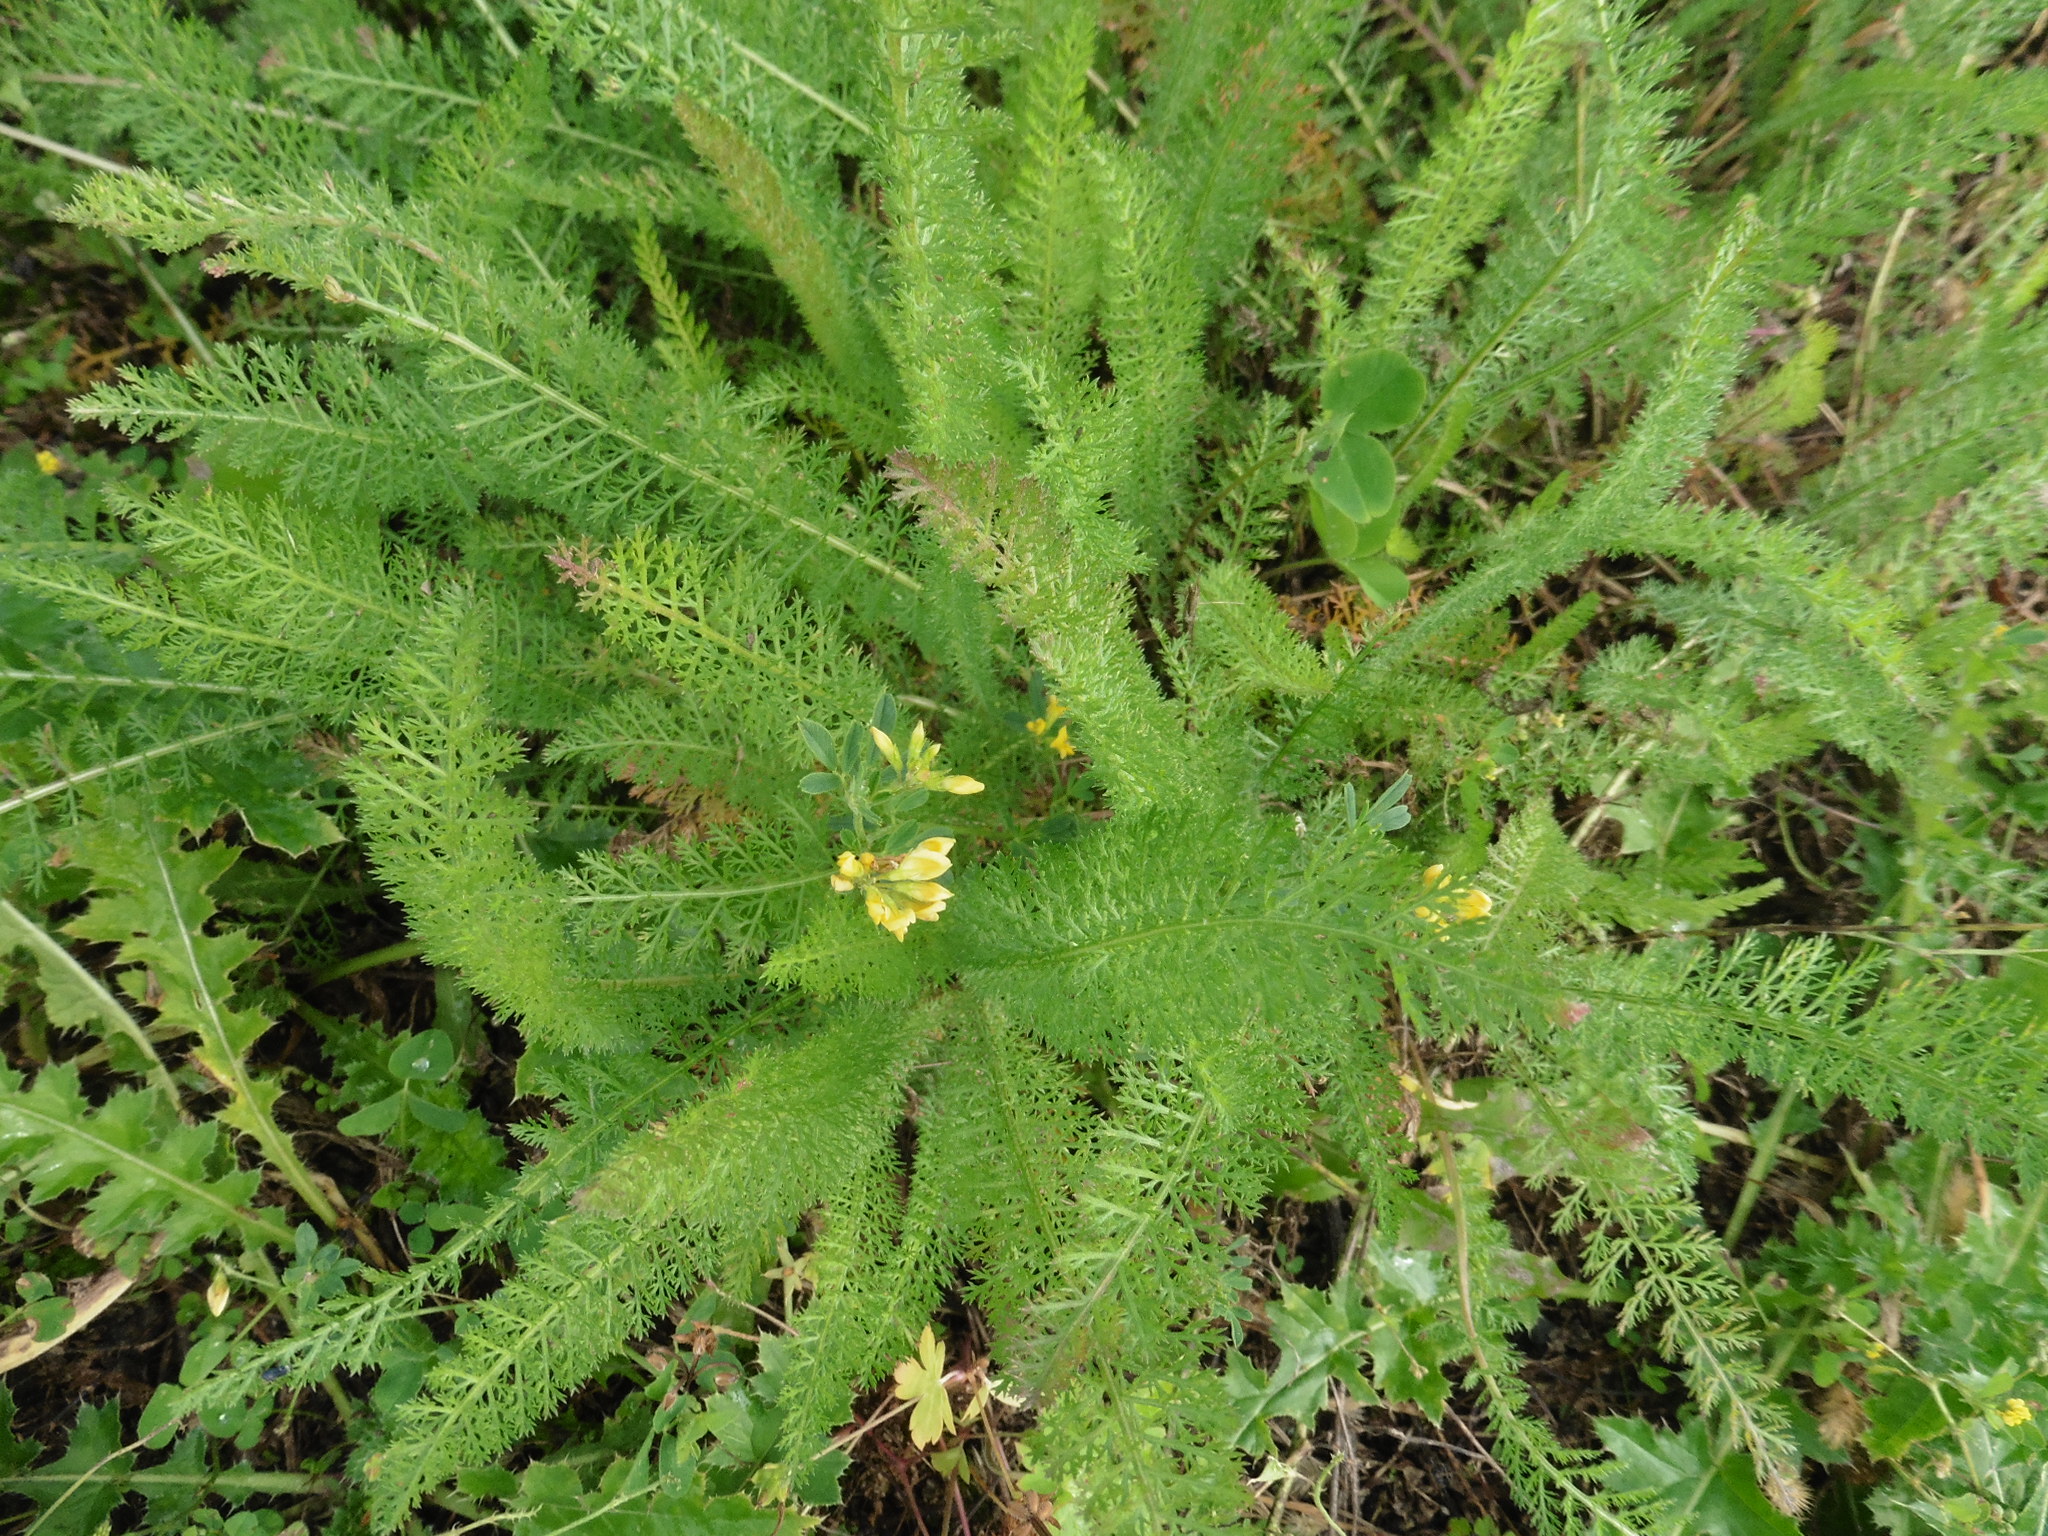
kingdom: Plantae
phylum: Tracheophyta
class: Magnoliopsida
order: Asterales
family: Asteraceae
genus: Achillea
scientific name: Achillea millefolium
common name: Yarrow
